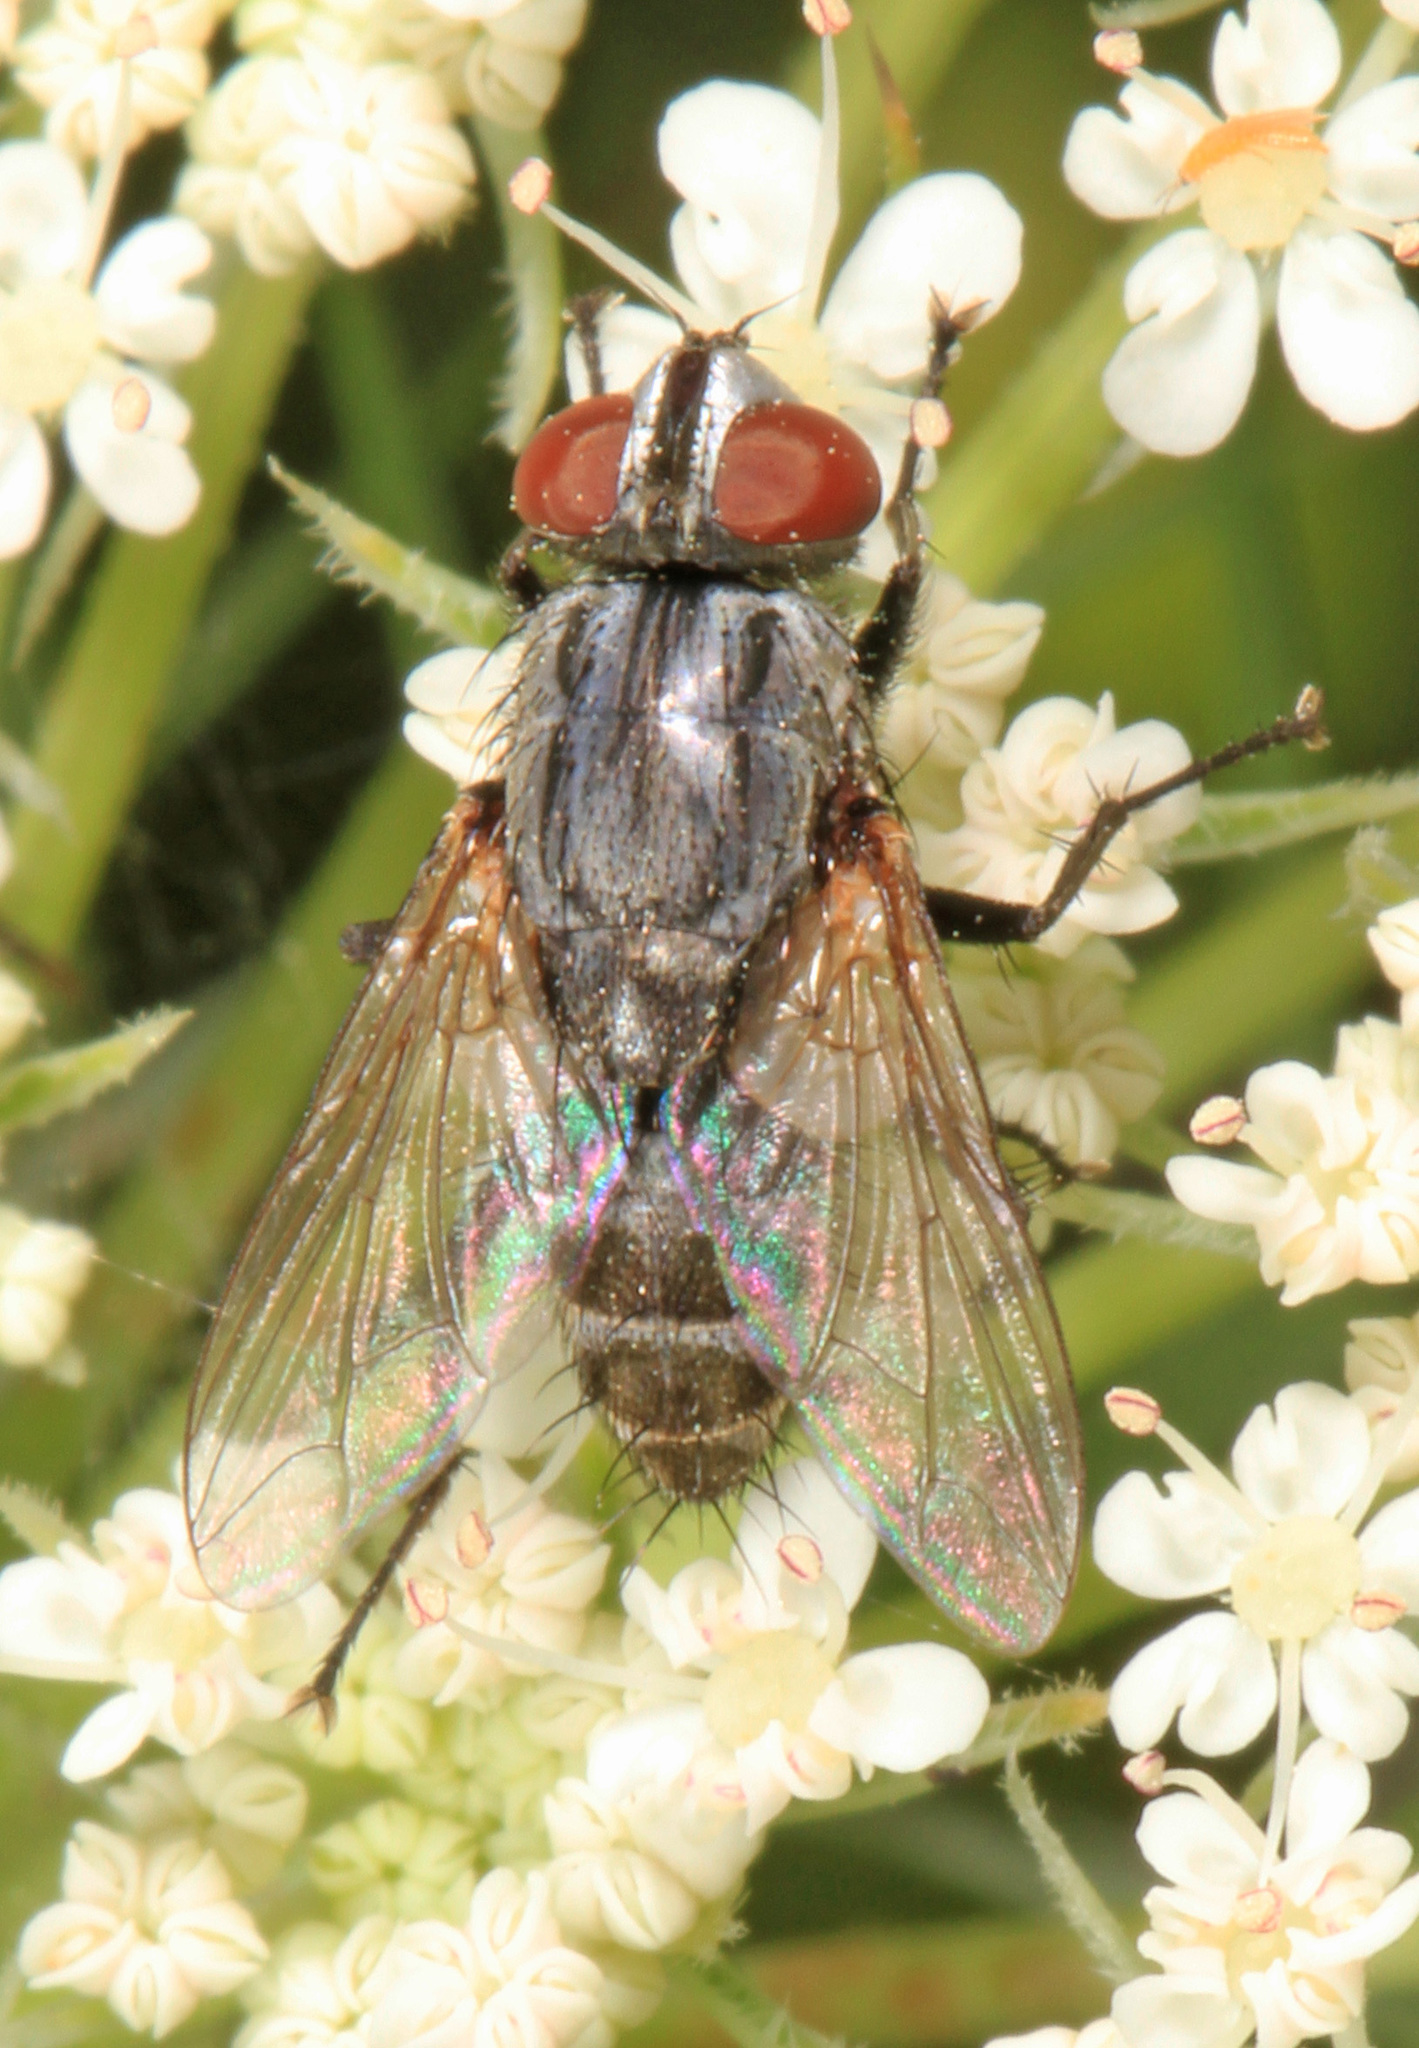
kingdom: Animalia
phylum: Arthropoda
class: Insecta
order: Diptera
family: Sarcophagidae
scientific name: Sarcophagidae
